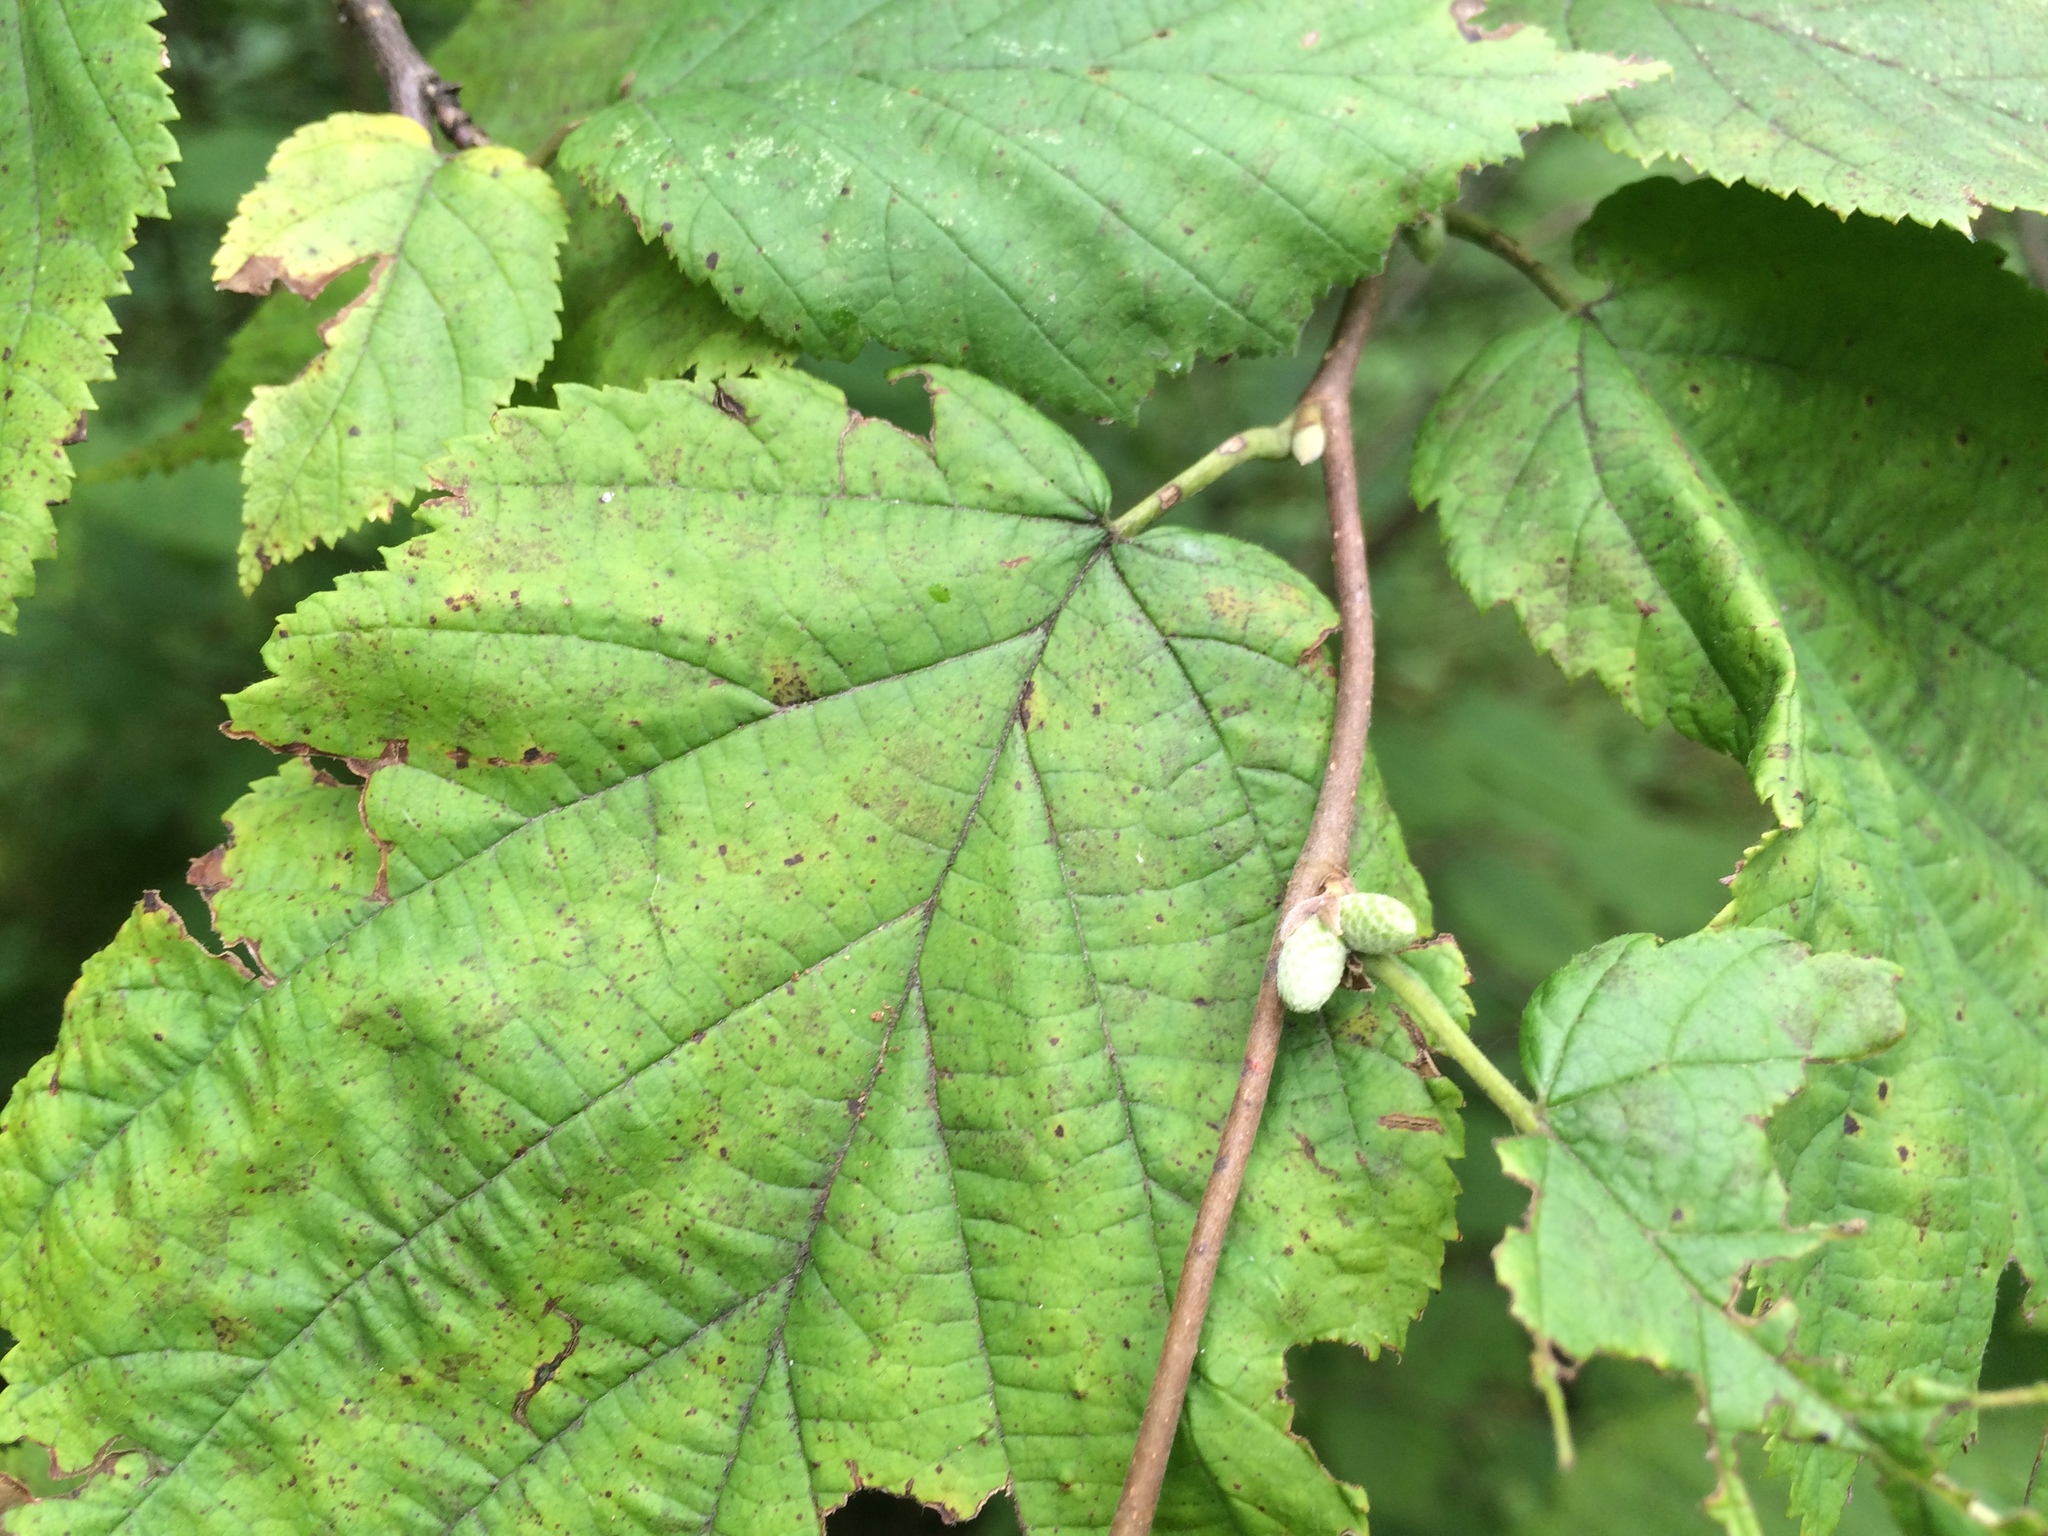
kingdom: Plantae
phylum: Tracheophyta
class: Magnoliopsida
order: Fagales
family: Betulaceae
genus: Corylus
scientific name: Corylus cornuta
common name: Beaked hazel
